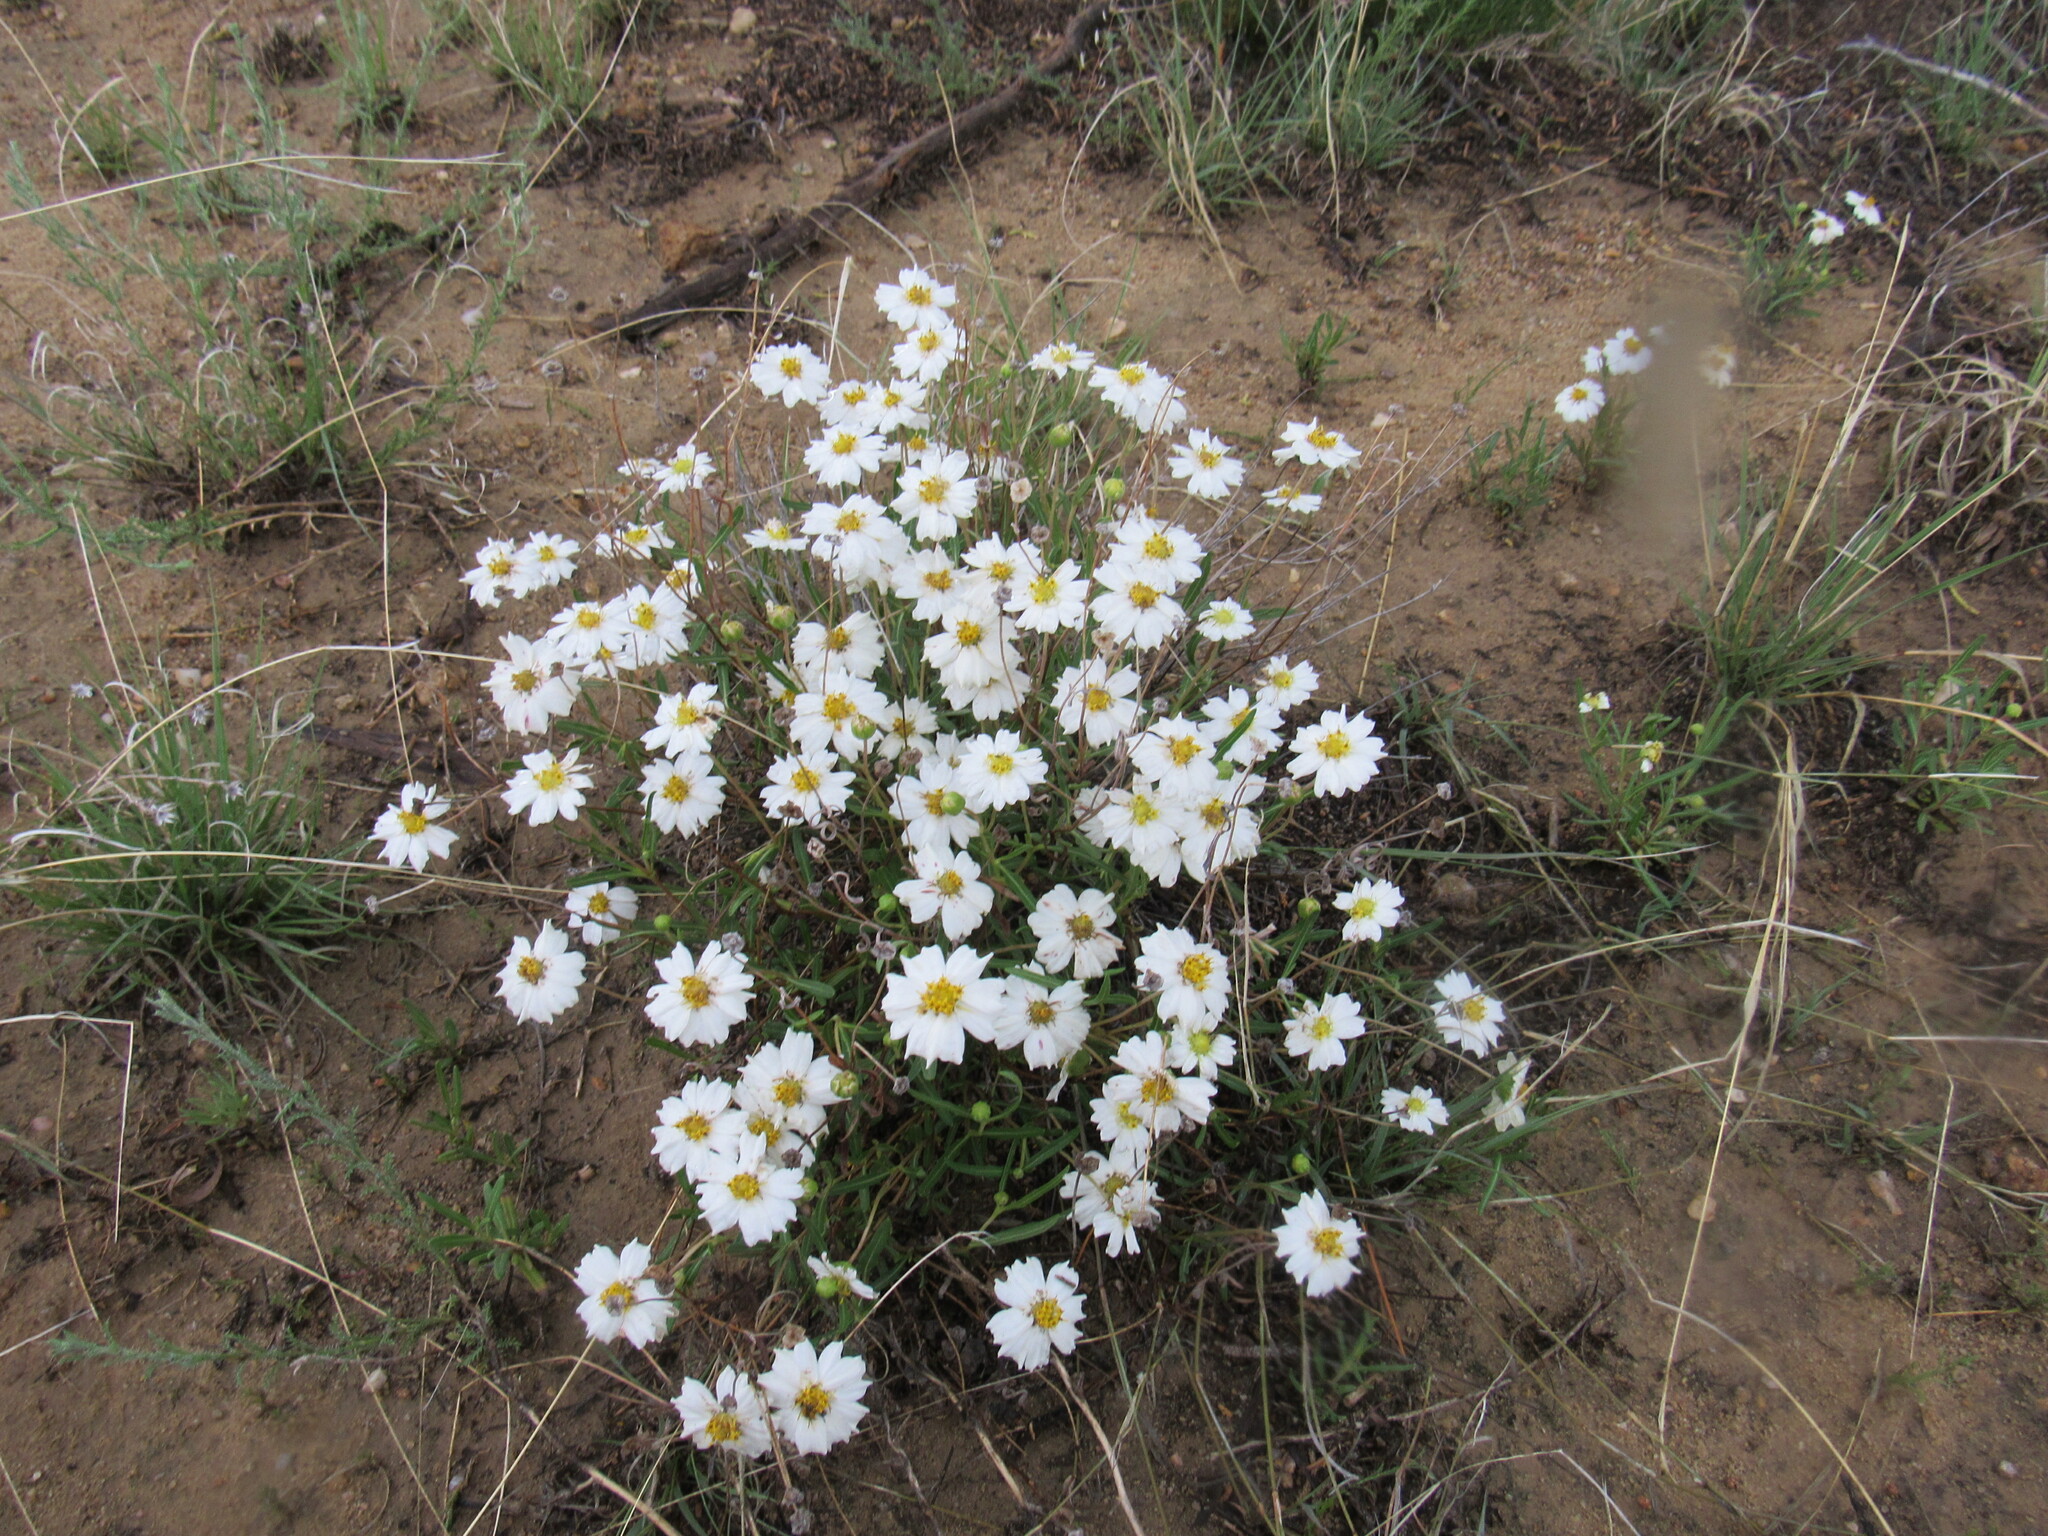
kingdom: Plantae
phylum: Tracheophyta
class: Magnoliopsida
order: Asterales
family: Asteraceae
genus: Melampodium
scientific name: Melampodium leucanthum
